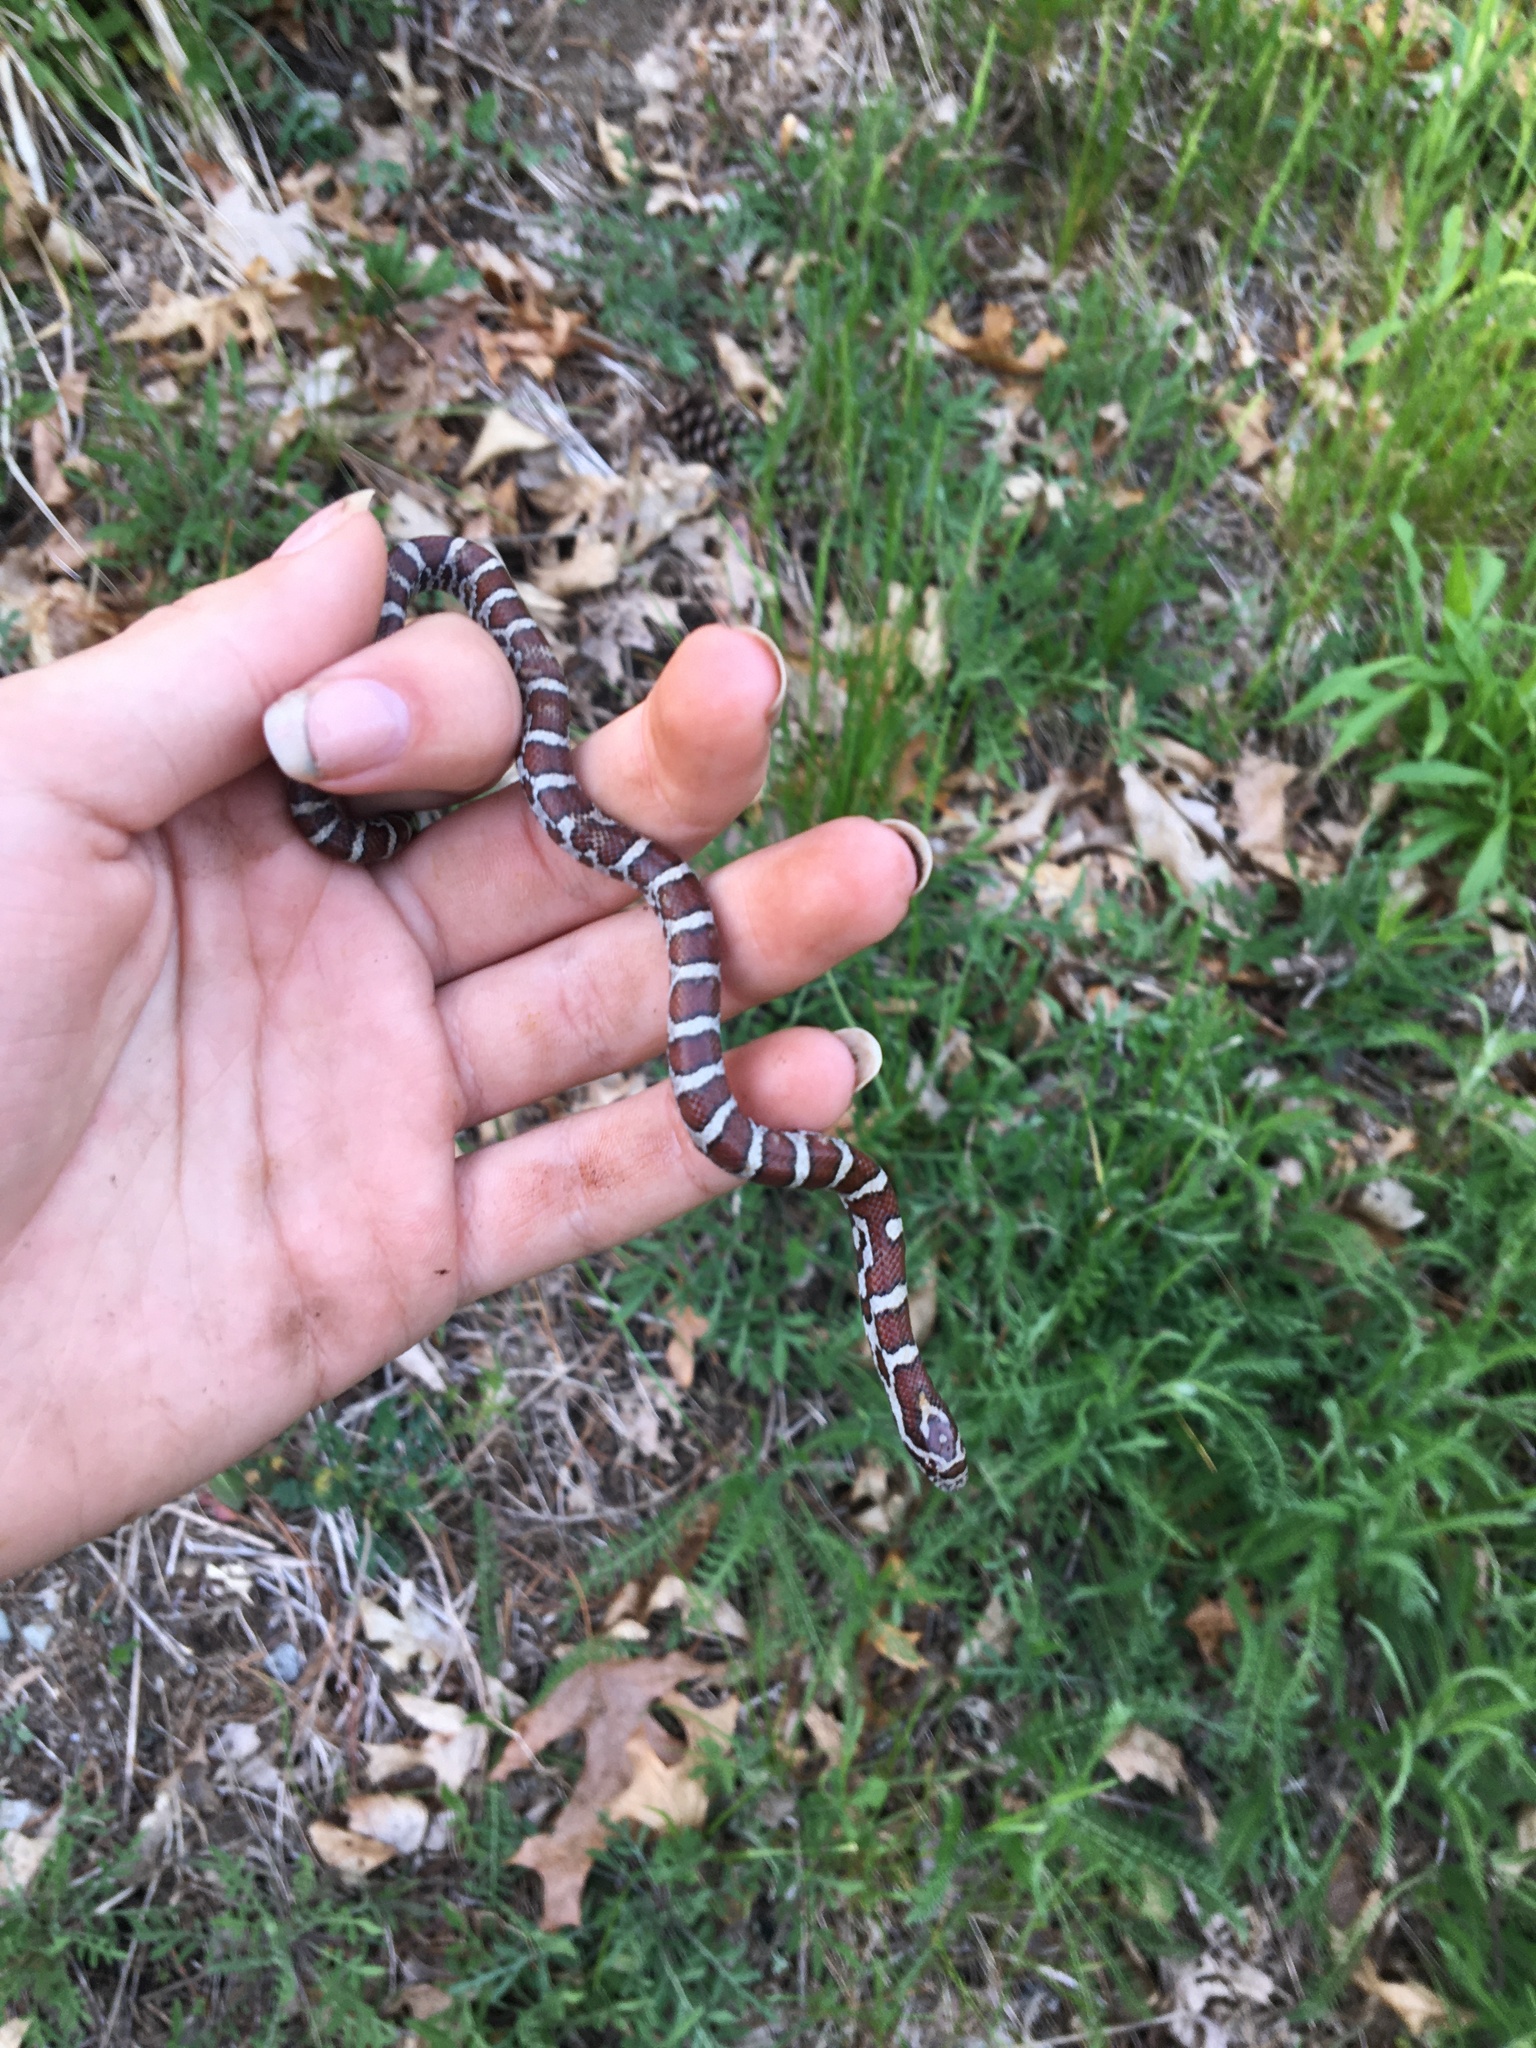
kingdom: Animalia
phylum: Chordata
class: Squamata
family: Colubridae
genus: Lampropeltis
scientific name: Lampropeltis triangulum
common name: Eastern milksnake
